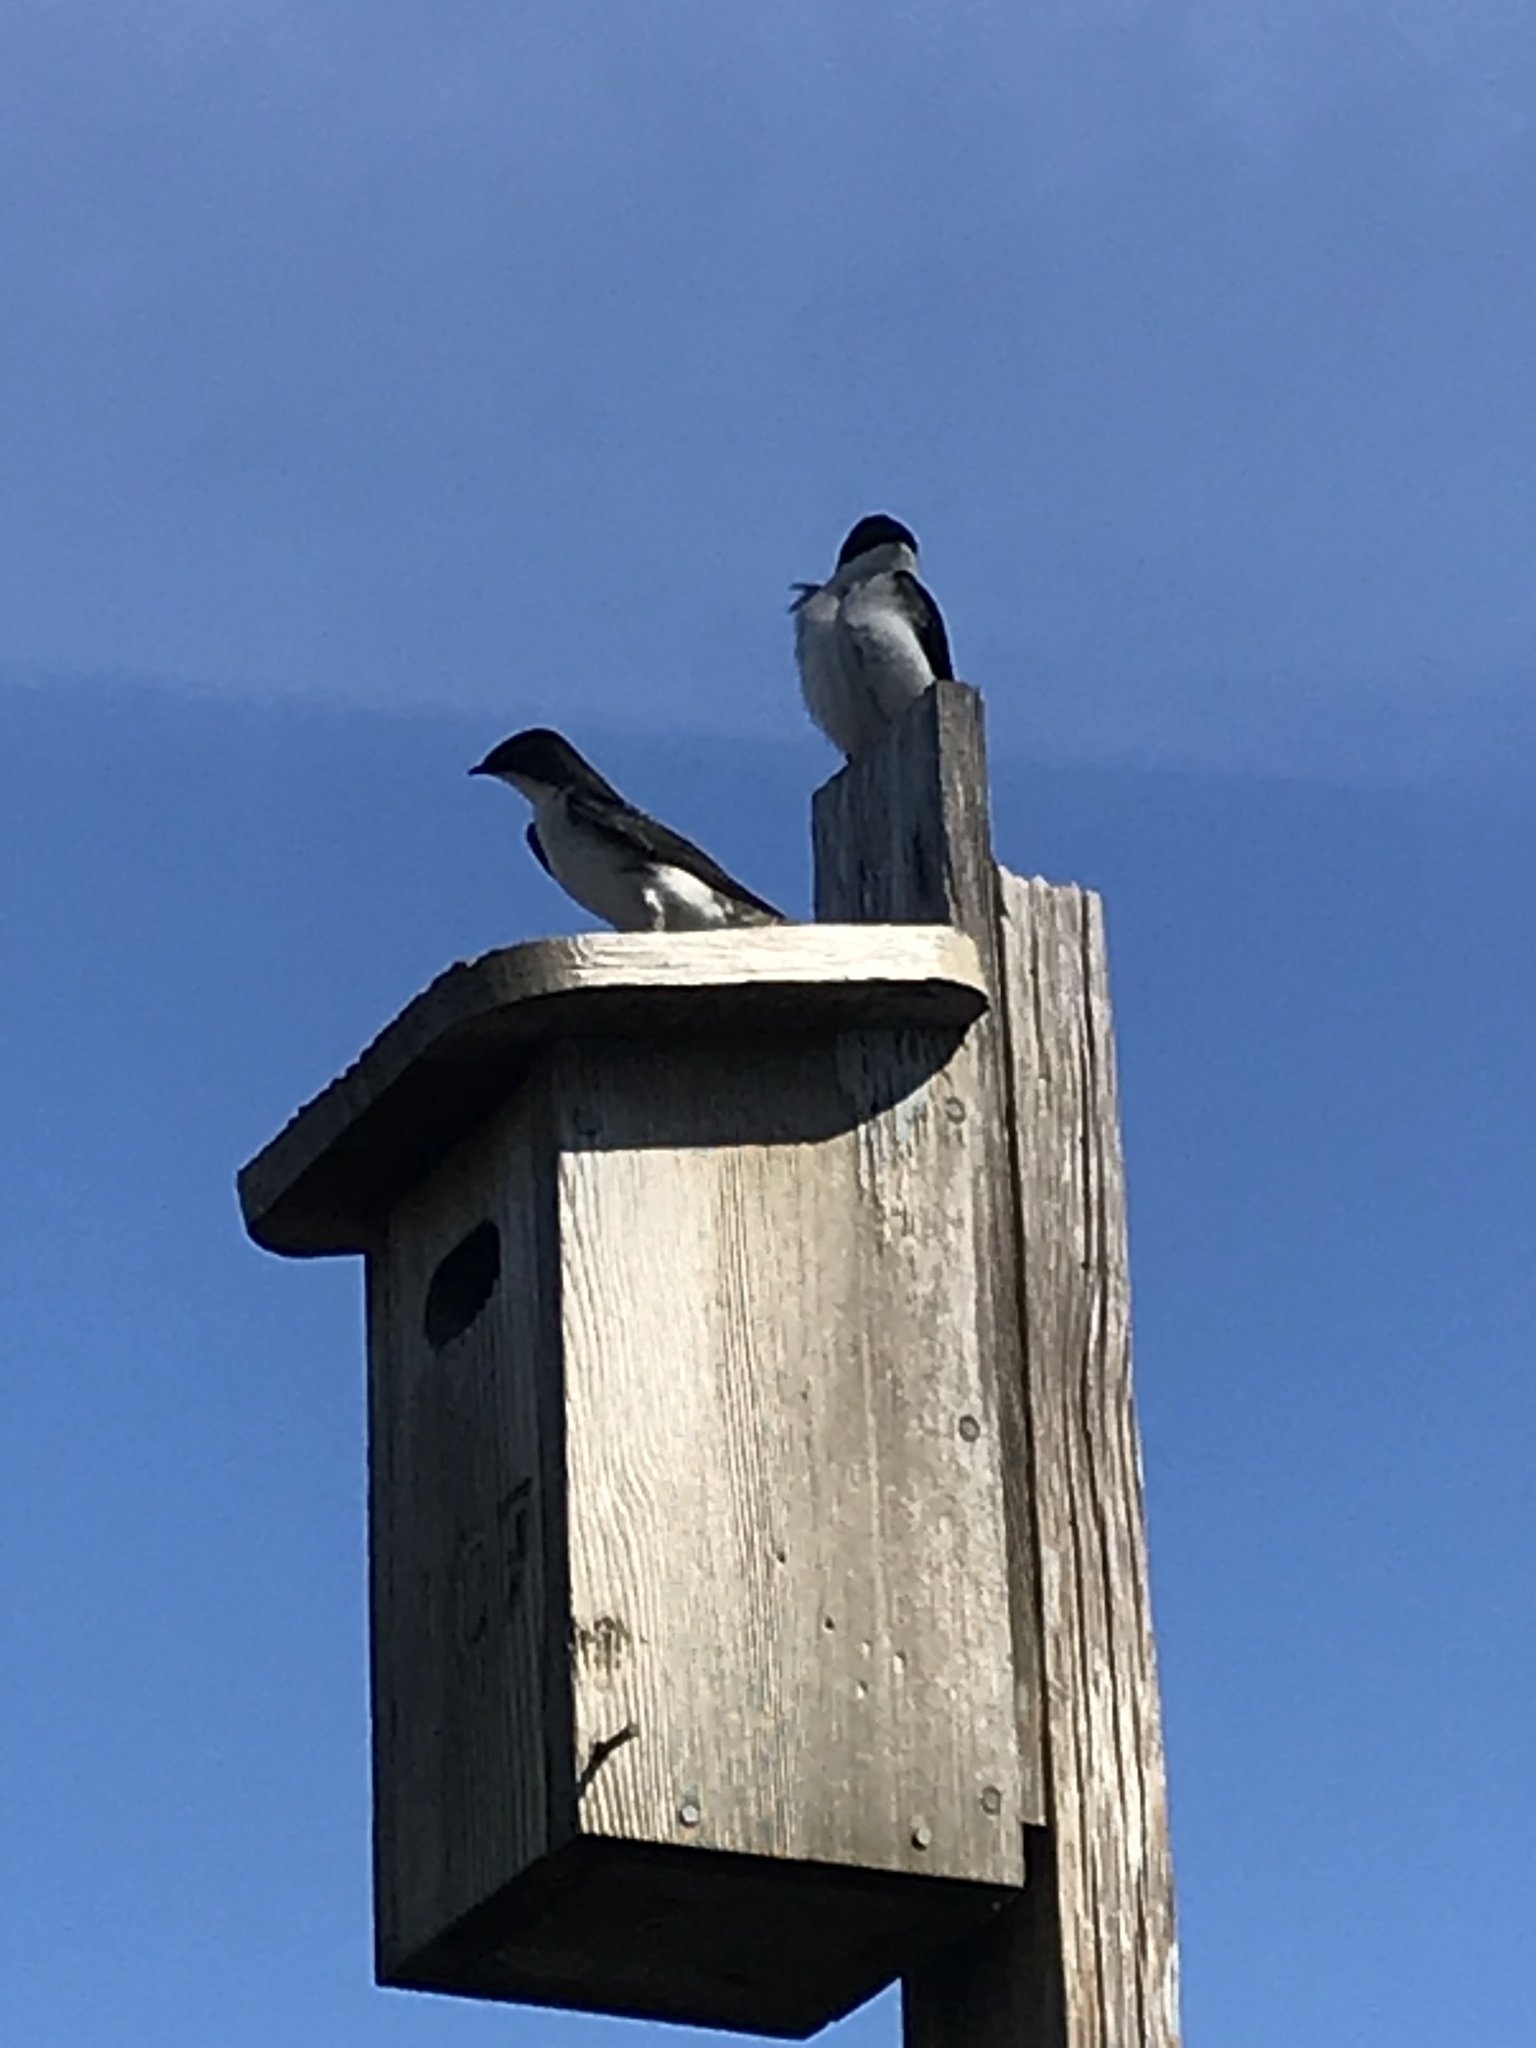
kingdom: Animalia
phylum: Chordata
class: Aves
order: Passeriformes
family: Hirundinidae
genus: Tachycineta
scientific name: Tachycineta bicolor
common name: Tree swallow
